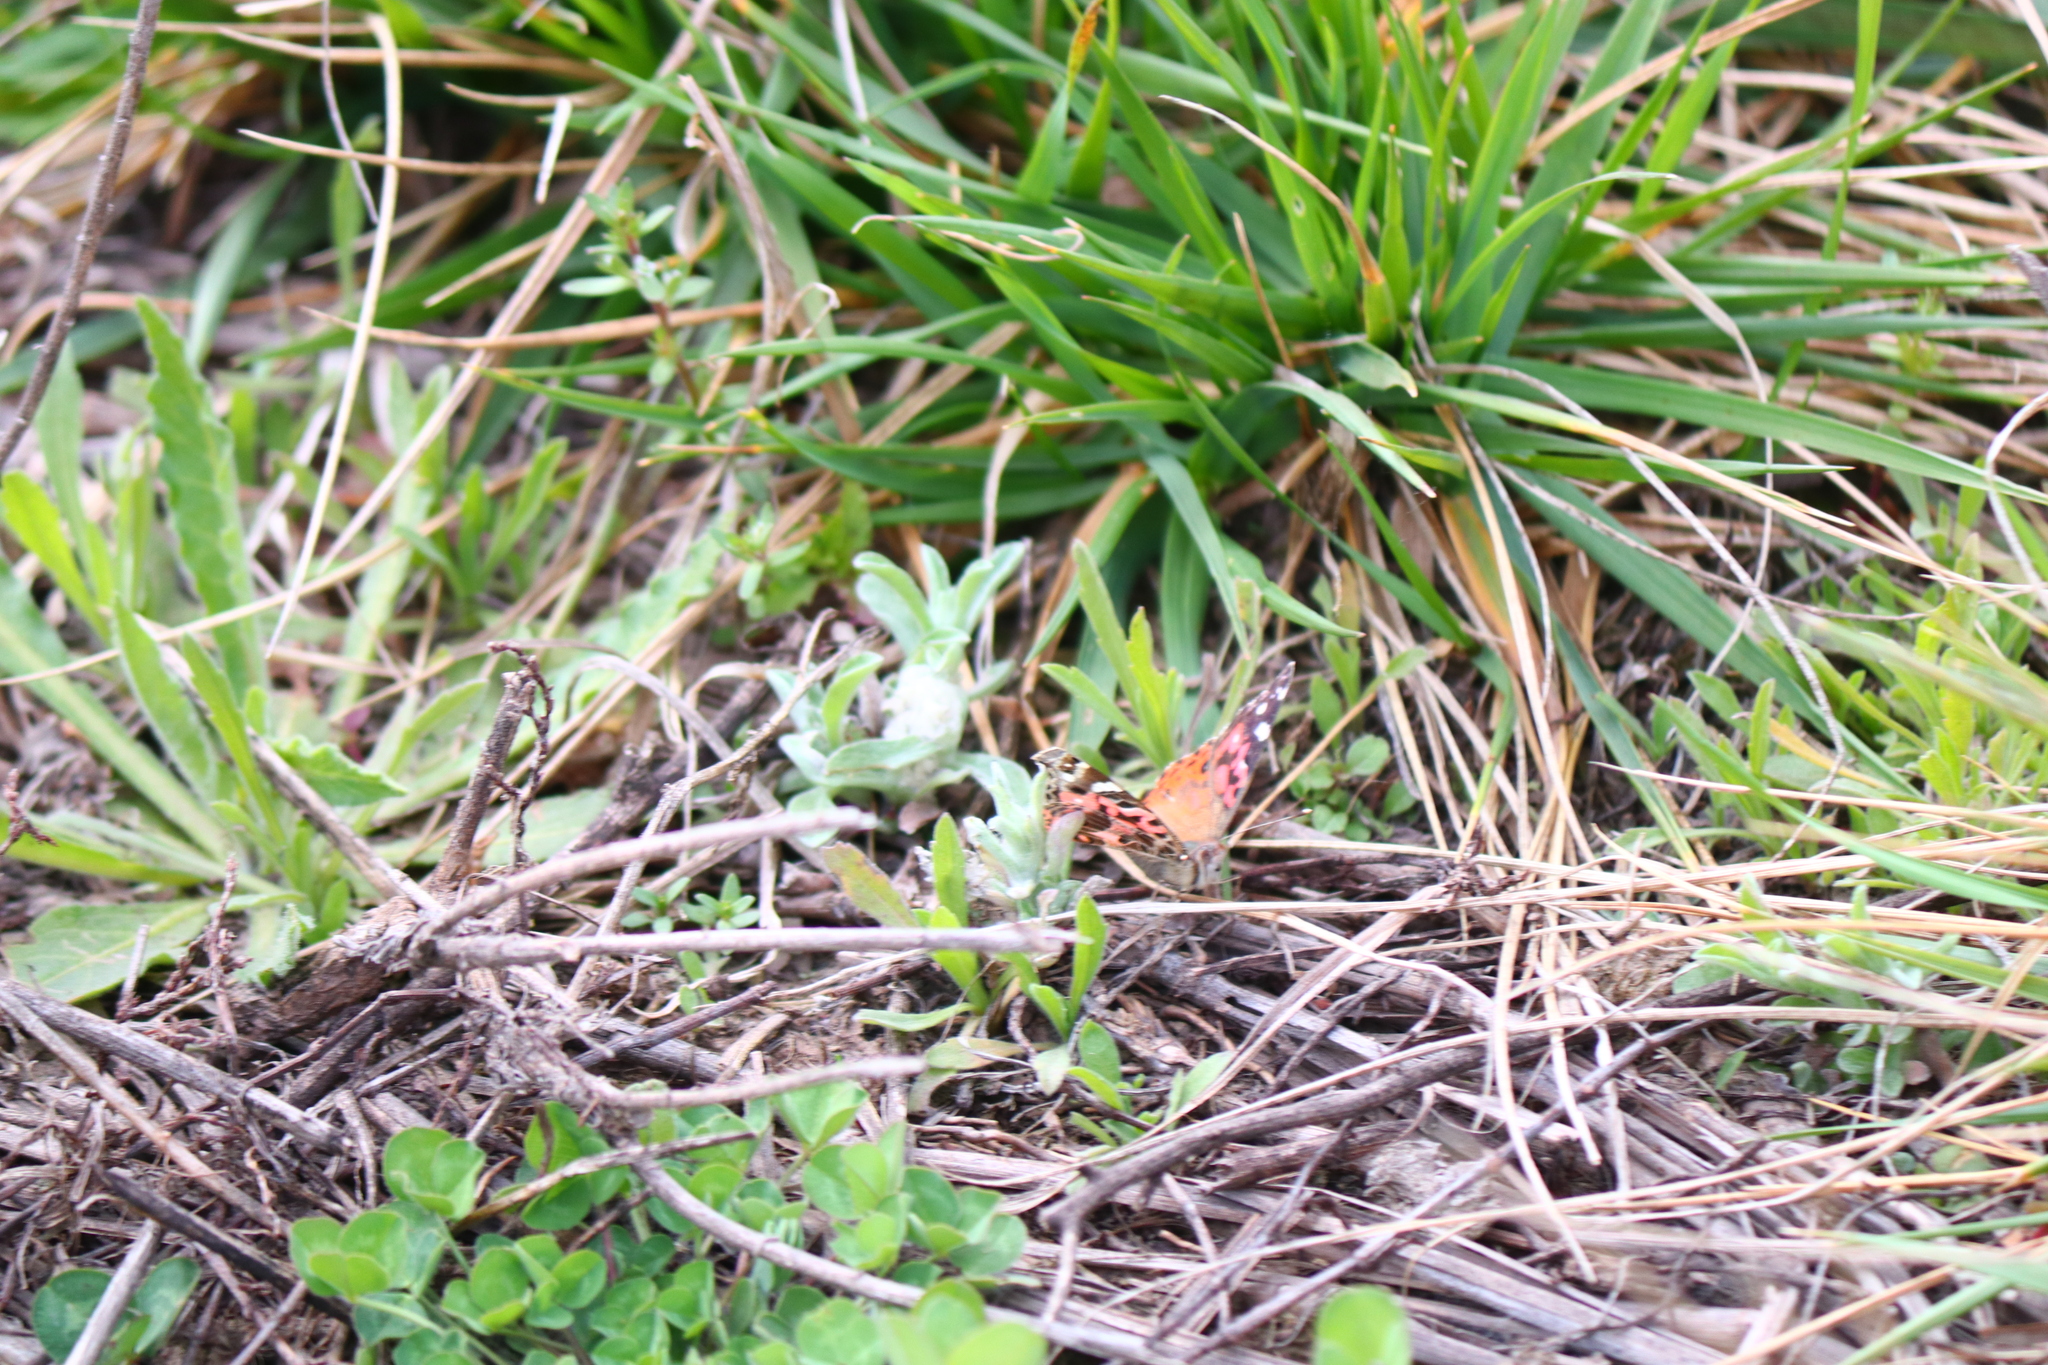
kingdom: Animalia
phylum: Arthropoda
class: Insecta
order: Lepidoptera
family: Nymphalidae
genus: Vanessa
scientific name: Vanessa braziliensis
